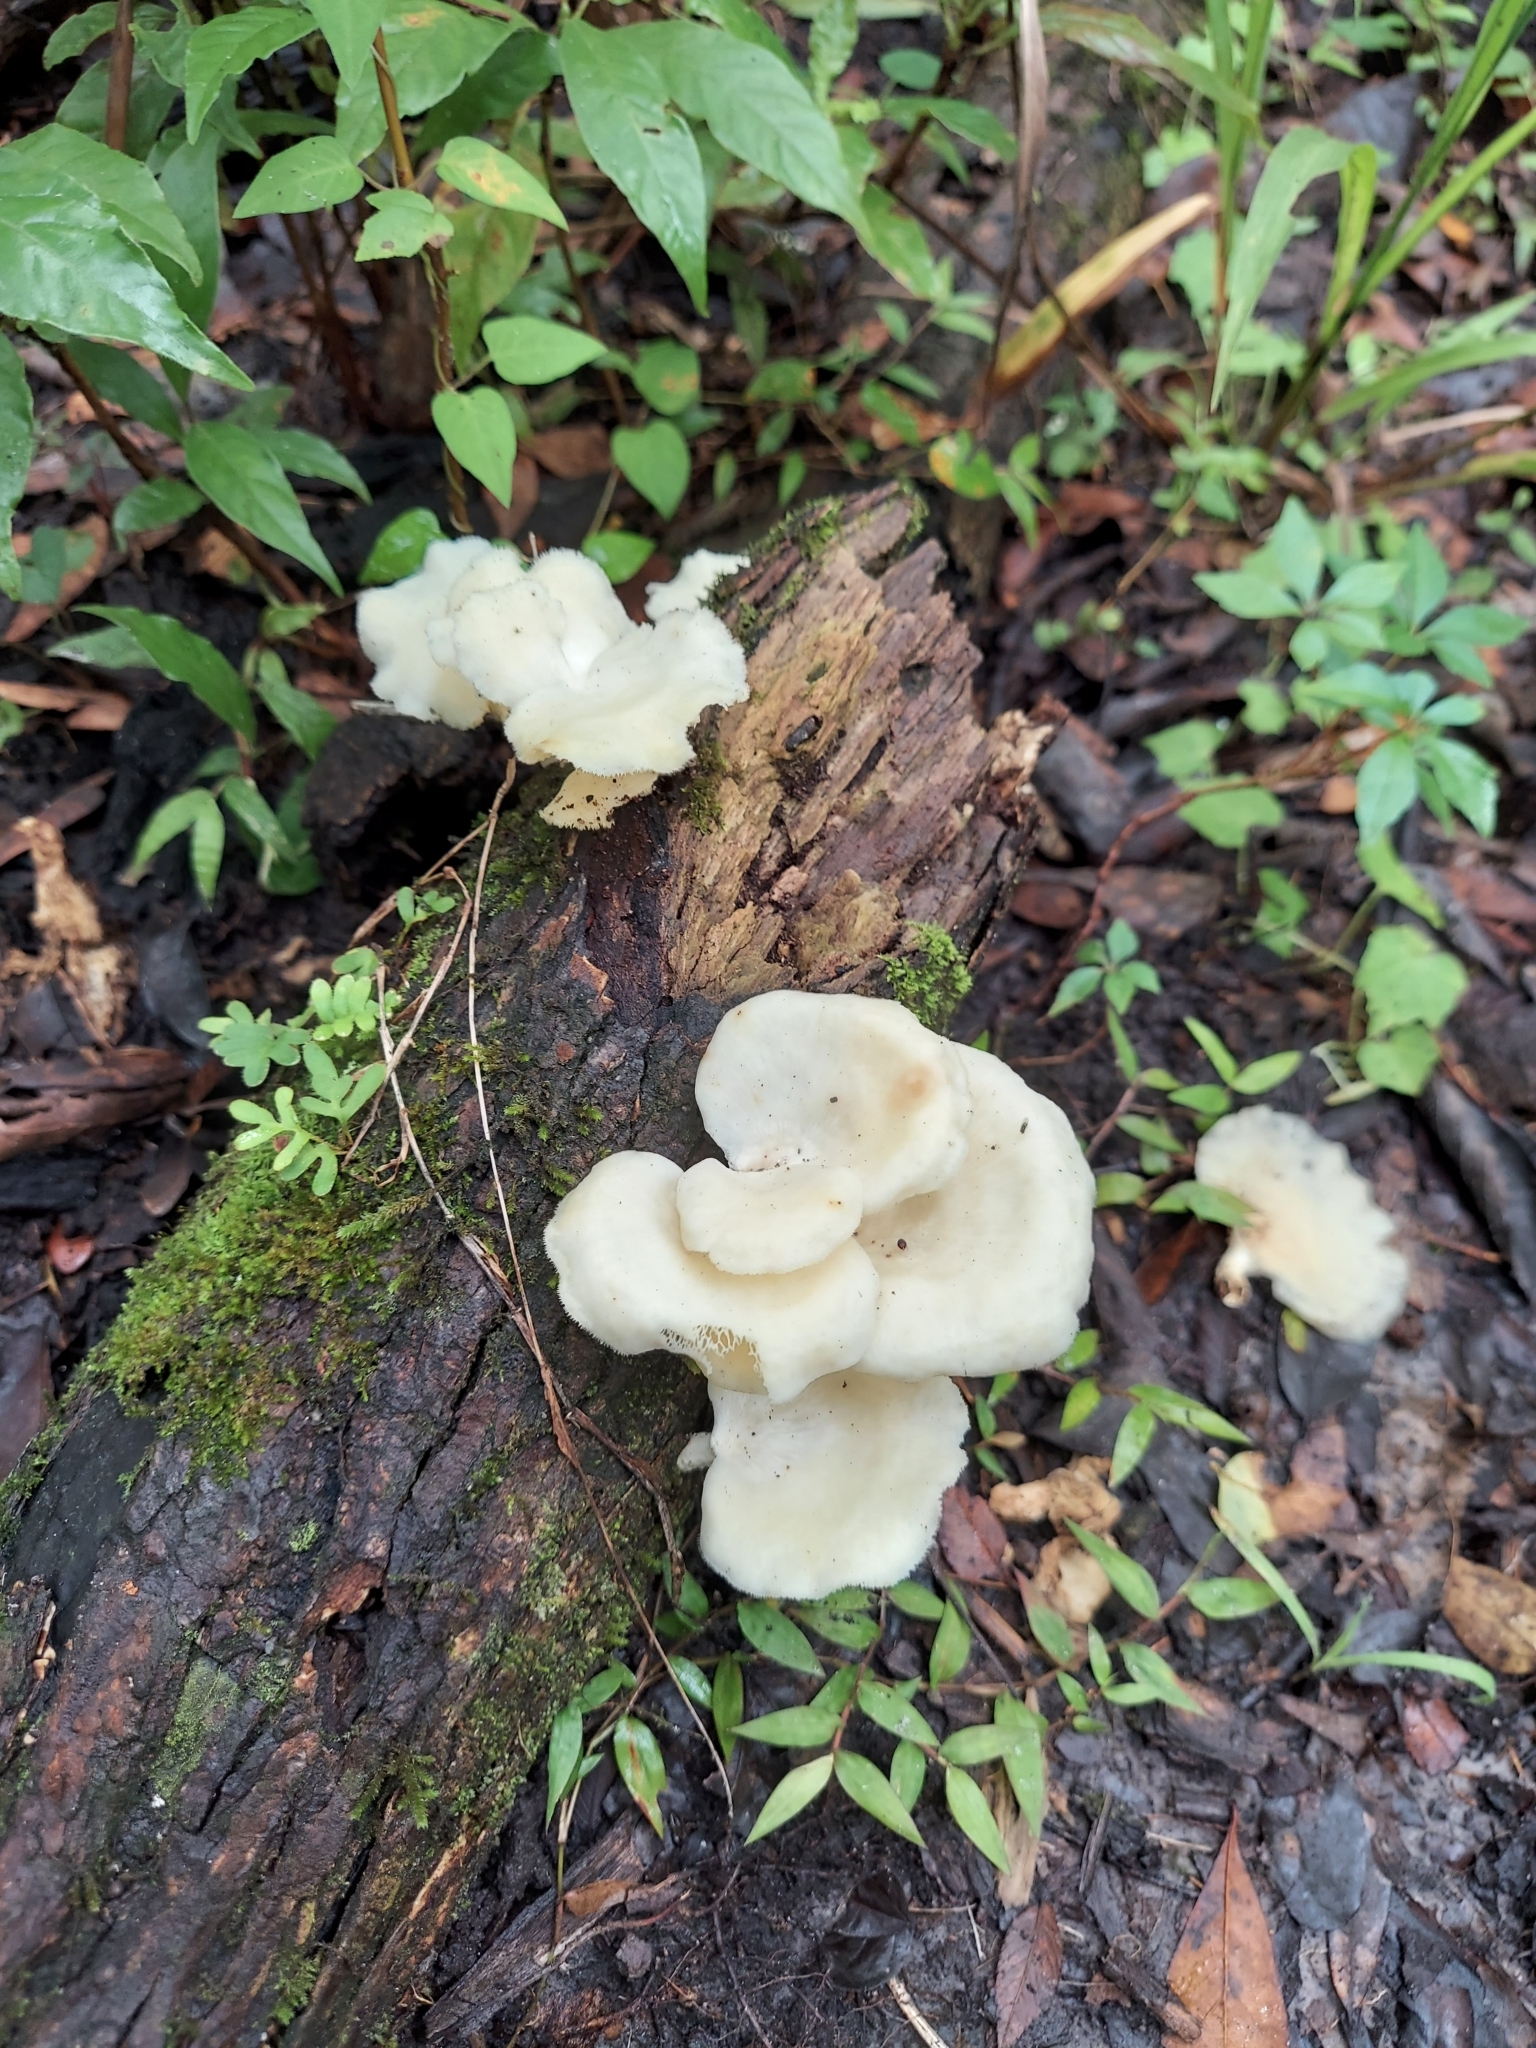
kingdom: Fungi
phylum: Basidiomycota
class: Agaricomycetes
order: Polyporales
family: Polyporaceae
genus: Favolus
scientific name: Favolus tenuiculus
